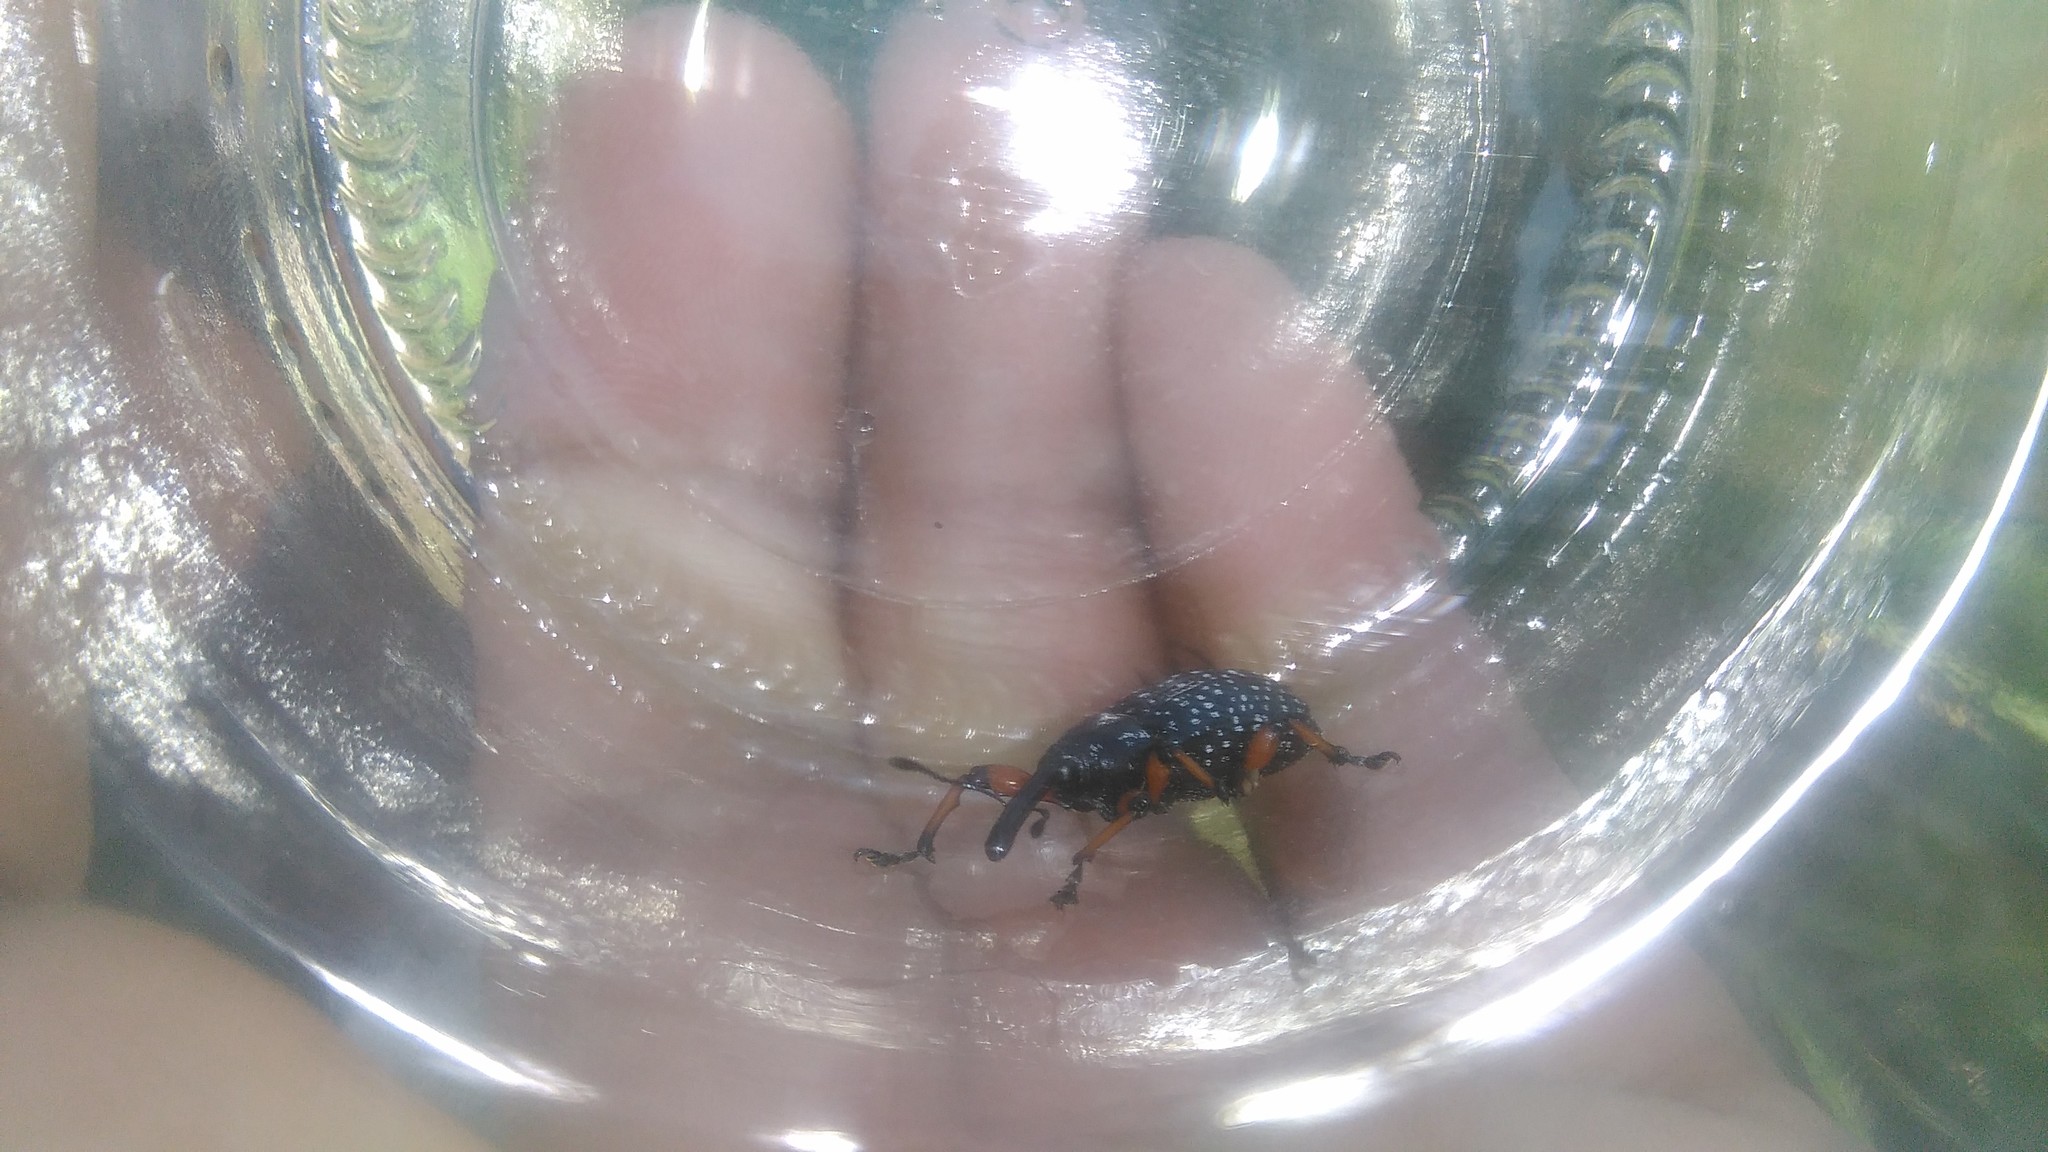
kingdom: Animalia
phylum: Arthropoda
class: Insecta
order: Coleoptera
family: Curculionidae
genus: Heilipodus
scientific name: Heilipodus erythropus
